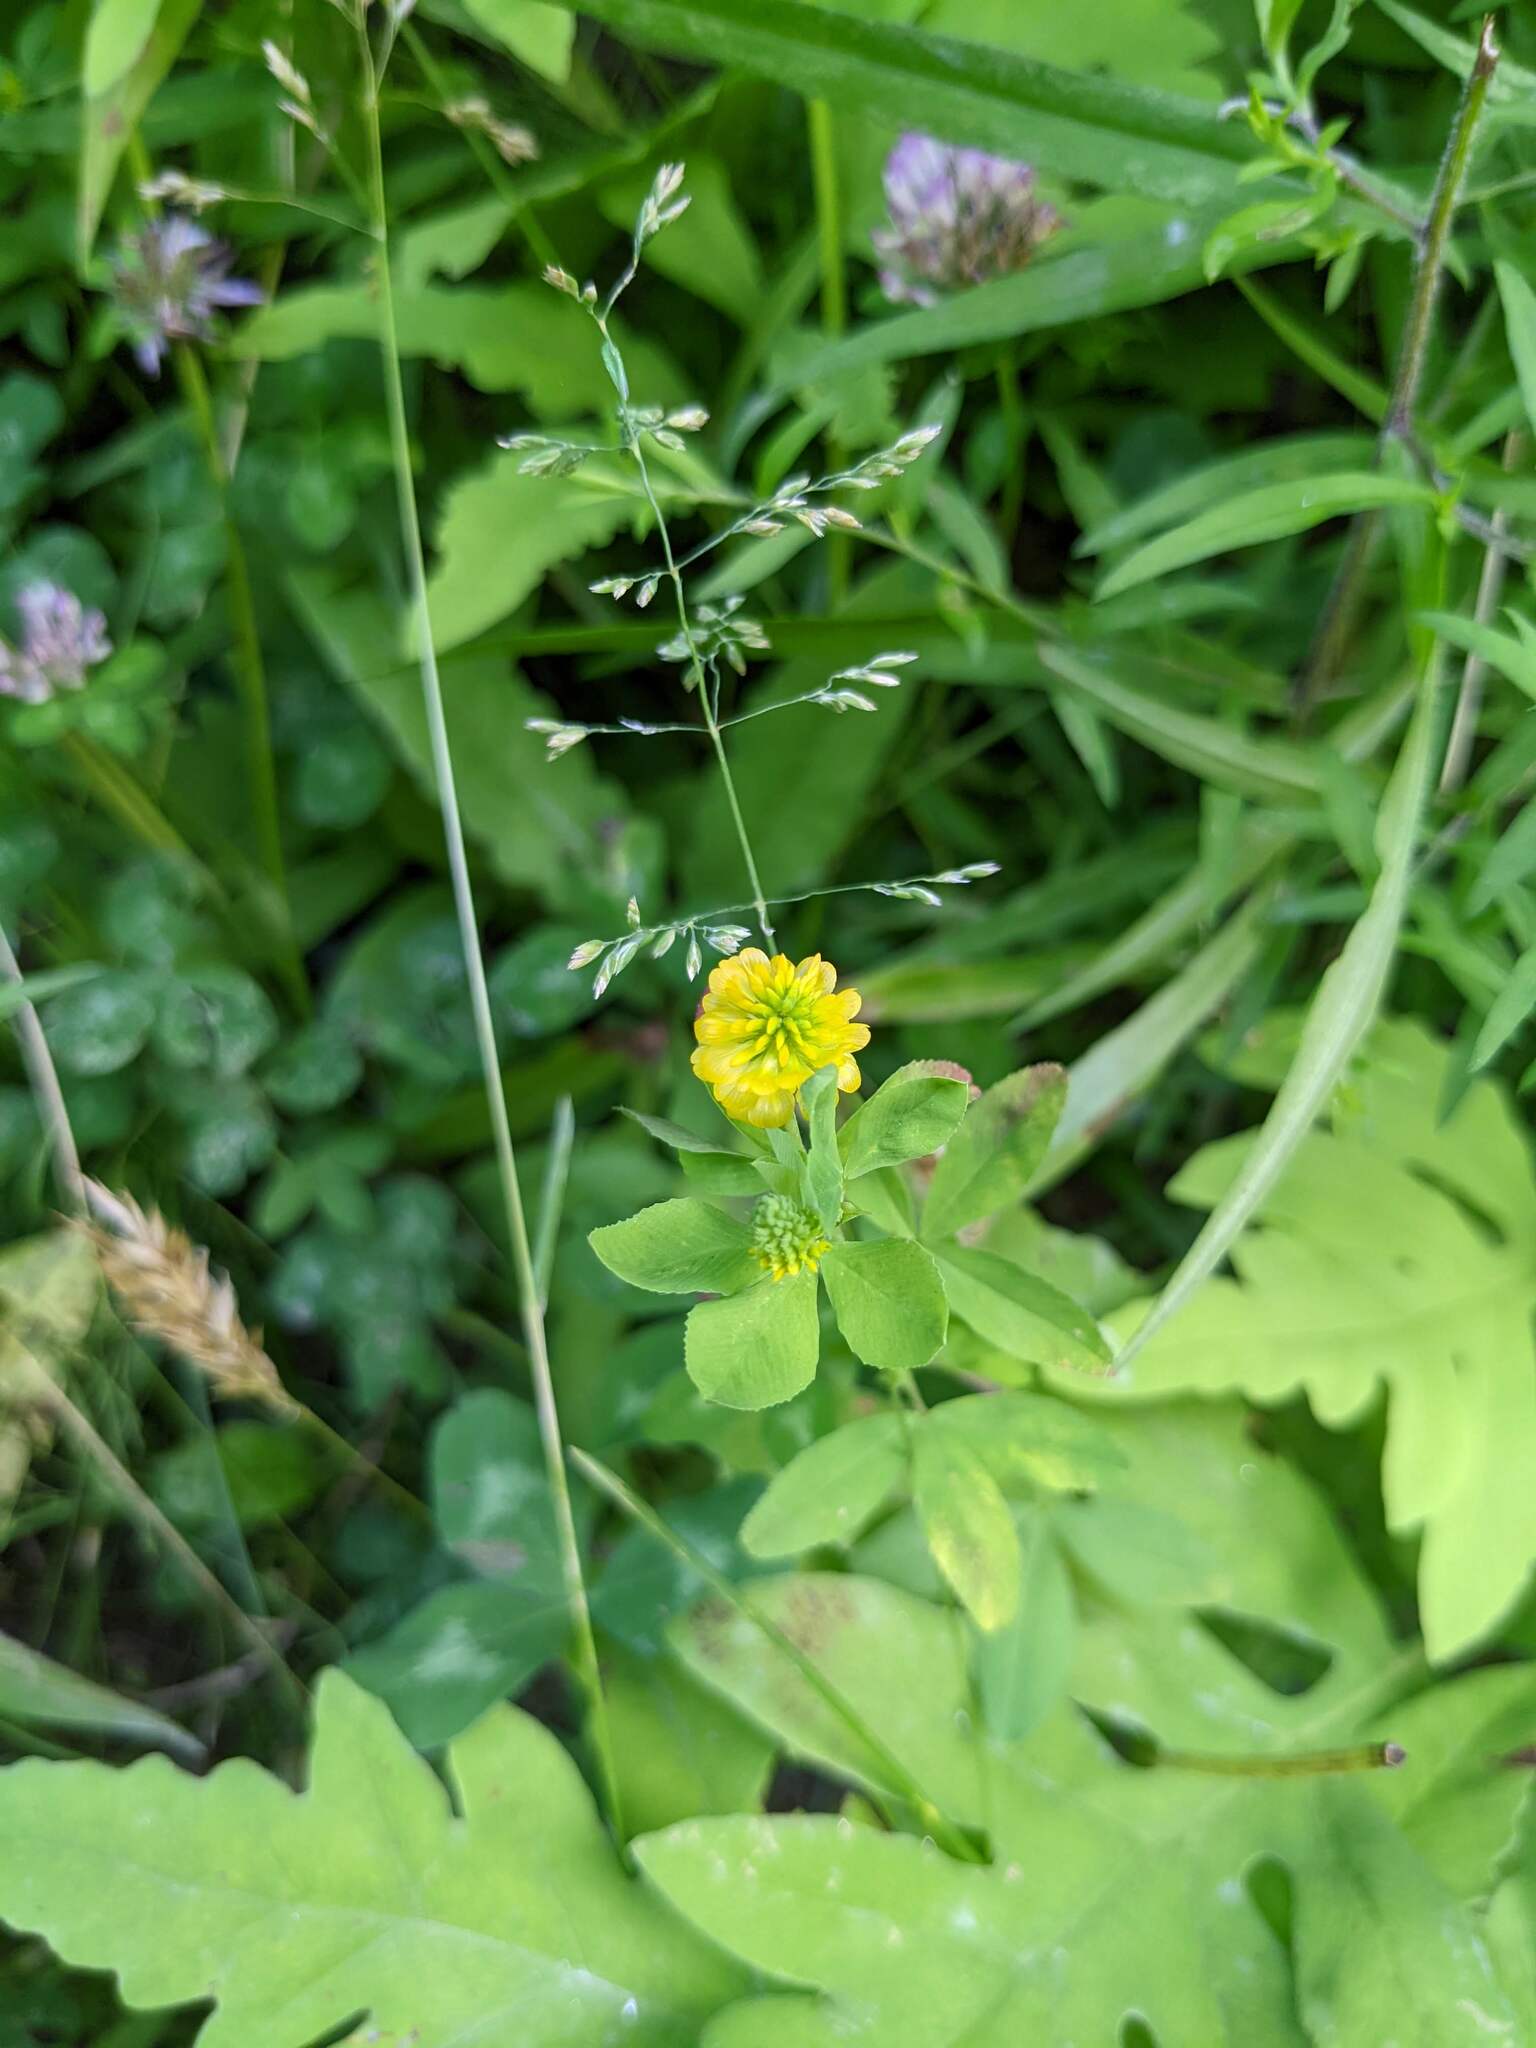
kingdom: Plantae
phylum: Tracheophyta
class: Magnoliopsida
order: Fabales
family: Fabaceae
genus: Trifolium
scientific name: Trifolium aureum
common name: Golden clover
